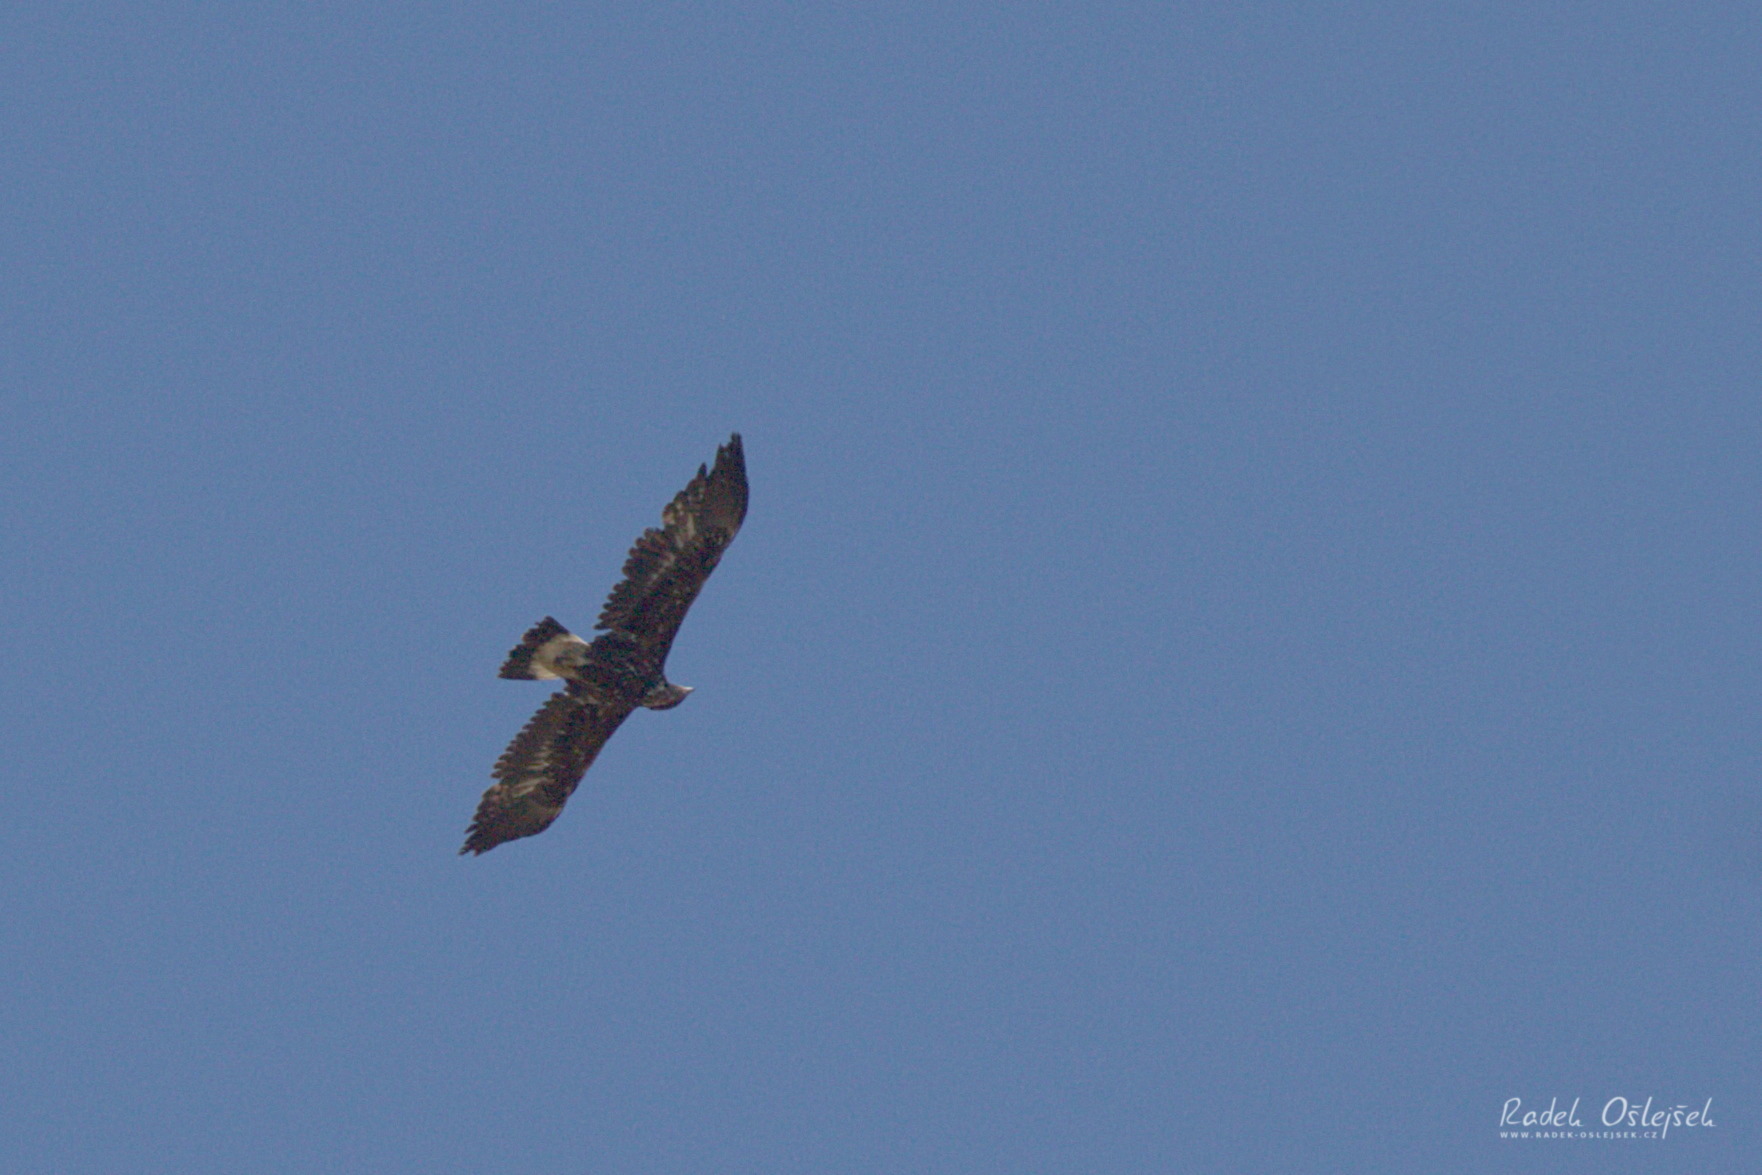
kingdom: Animalia
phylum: Chordata
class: Aves
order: Accipitriformes
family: Accipitridae
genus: Aquila
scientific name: Aquila chrysaetos
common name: Golden eagle
